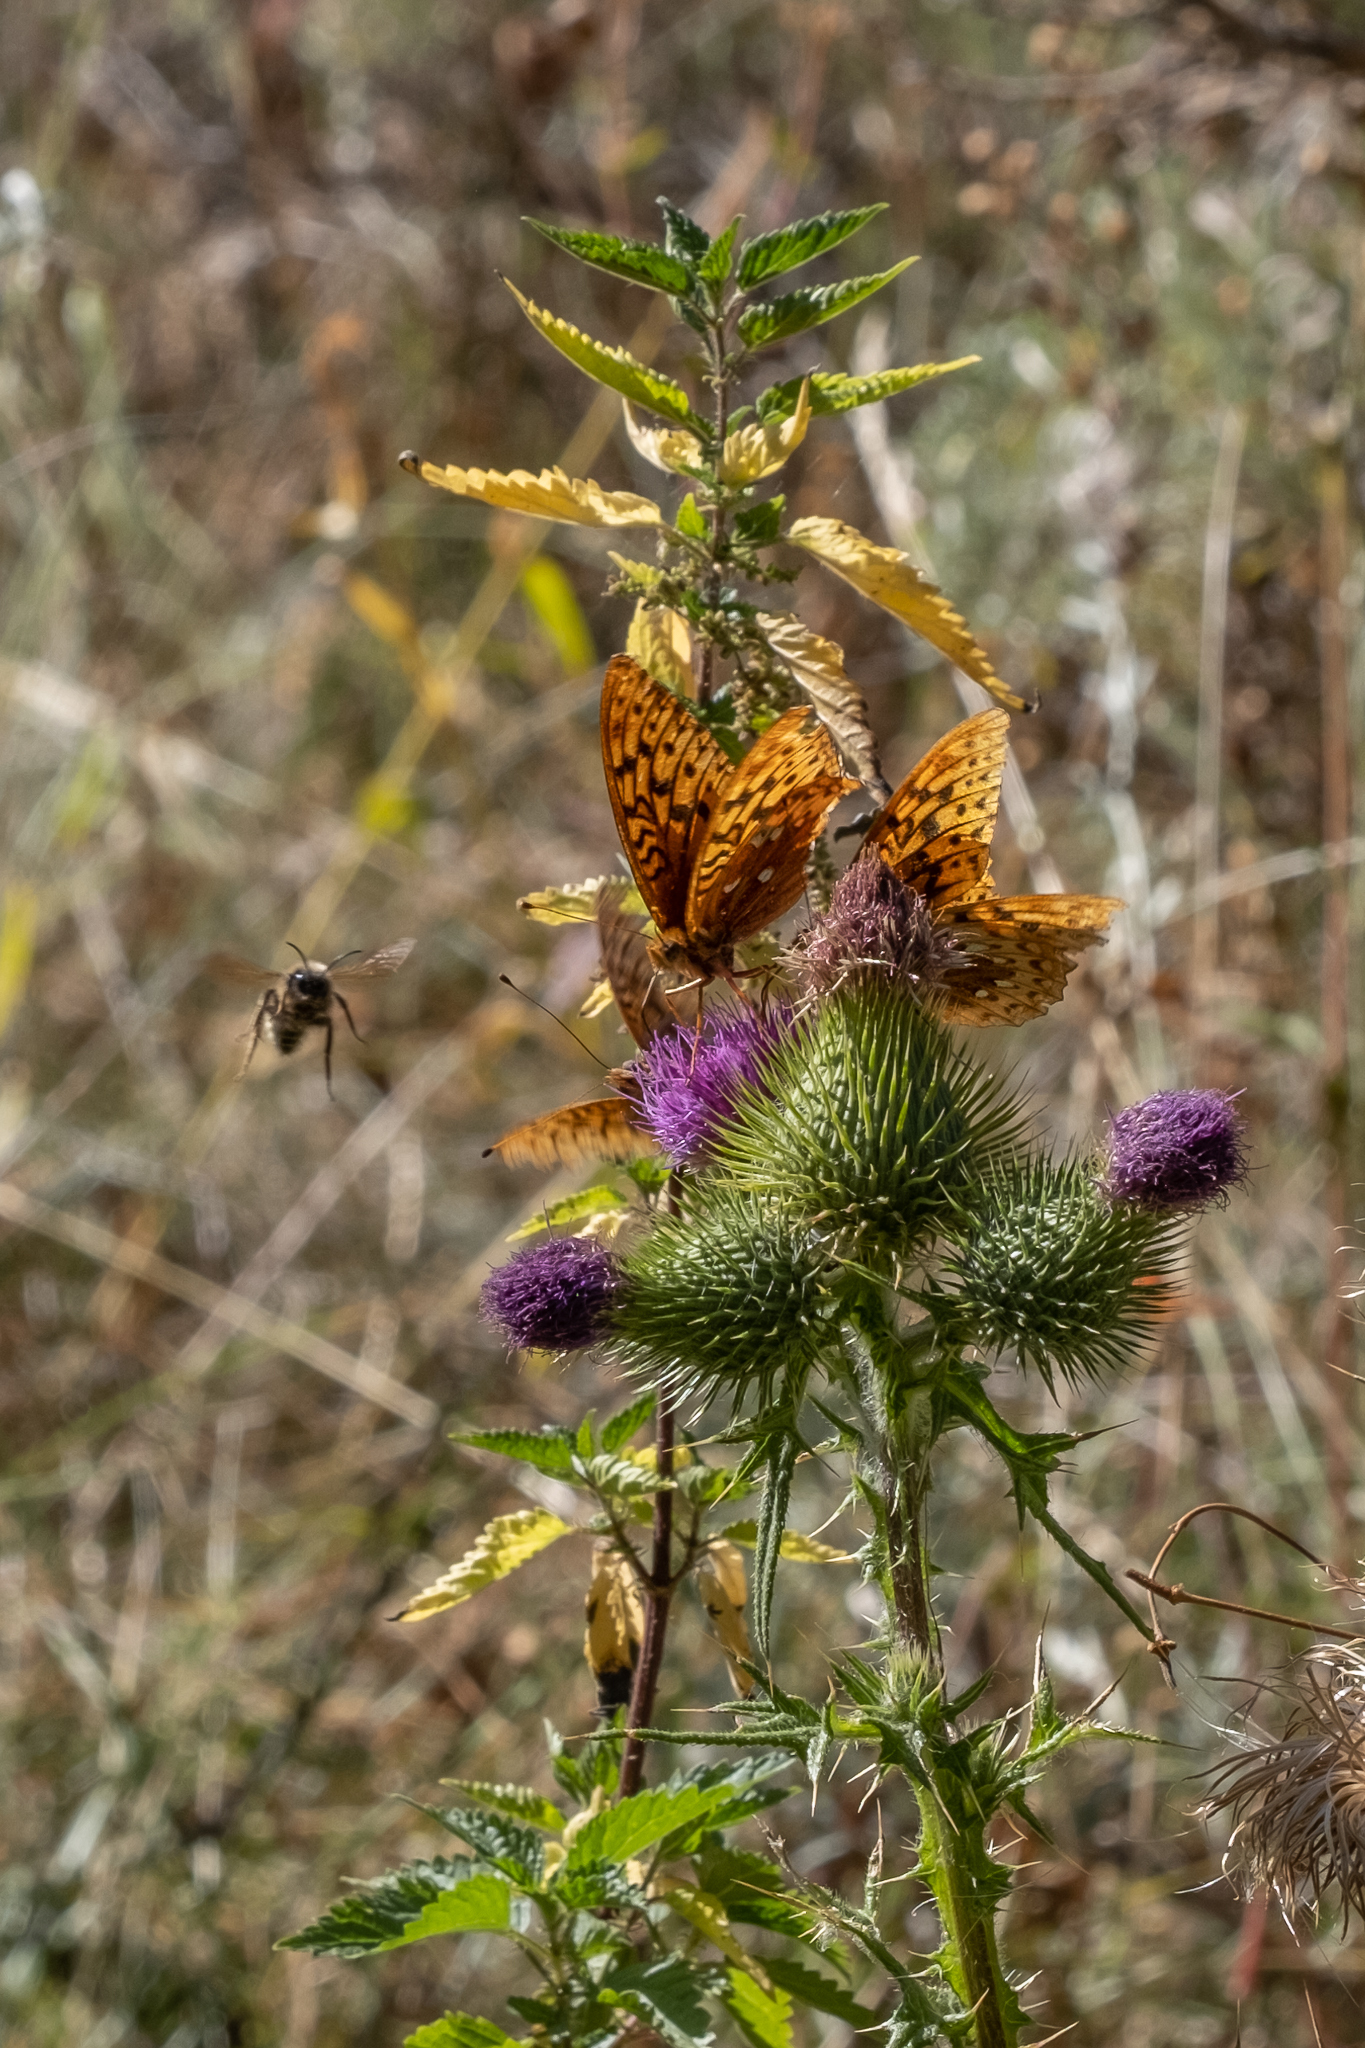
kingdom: Animalia
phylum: Arthropoda
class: Insecta
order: Lepidoptera
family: Nymphalidae
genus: Speyeria
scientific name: Speyeria cybele
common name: Great spangled fritillary
